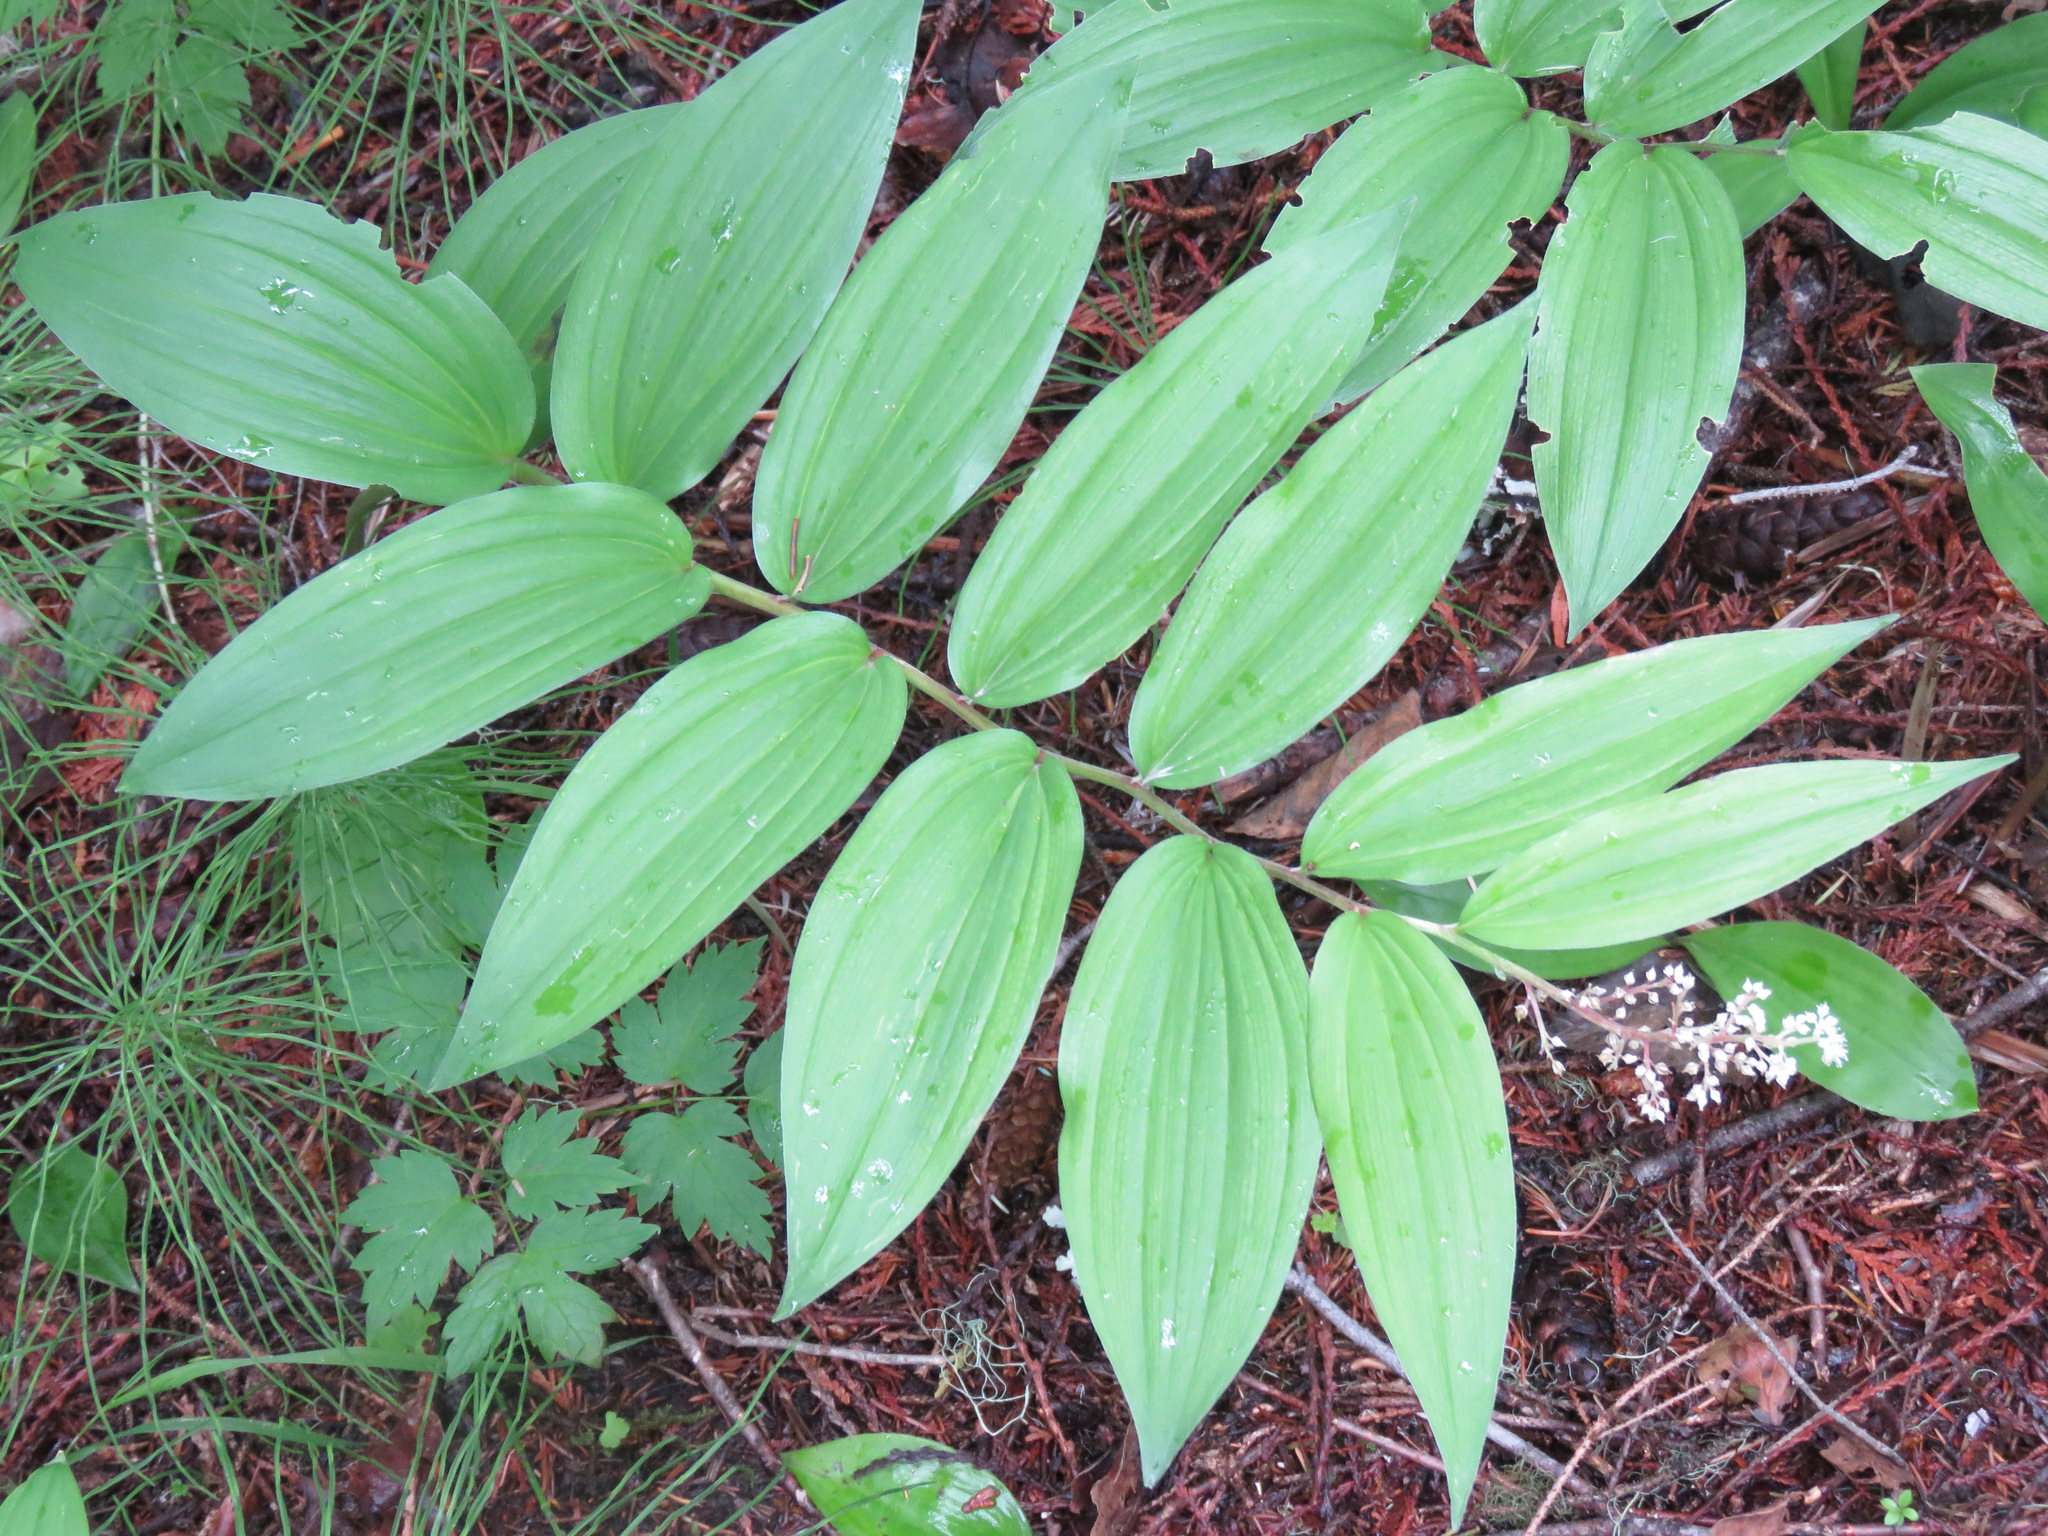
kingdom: Plantae
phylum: Tracheophyta
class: Liliopsida
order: Asparagales
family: Asparagaceae
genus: Maianthemum
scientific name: Maianthemum racemosum
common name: False spikenard
